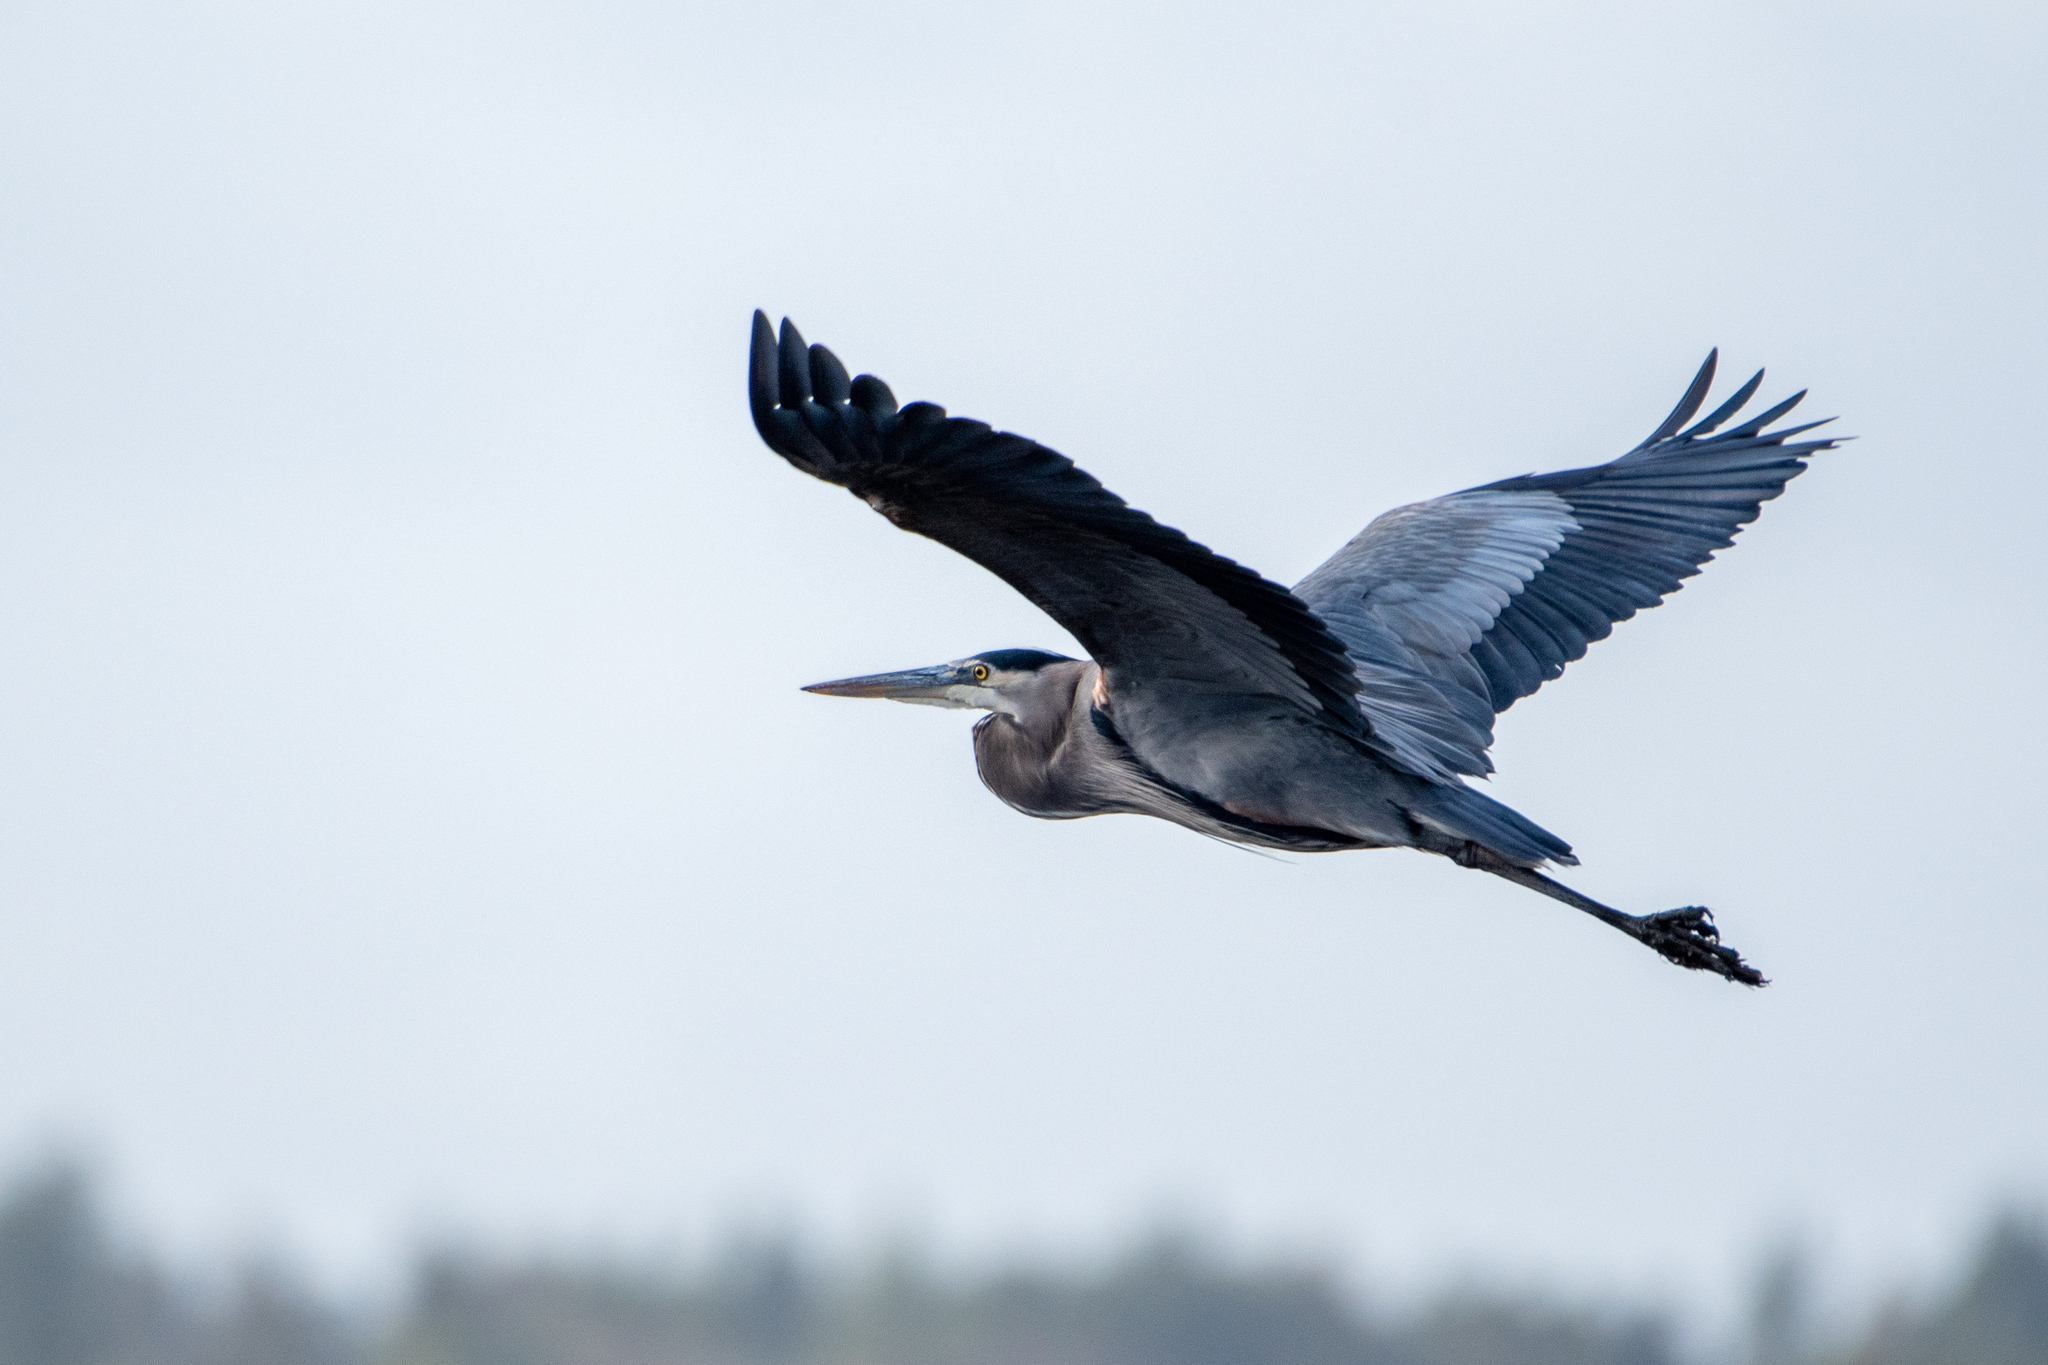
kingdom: Animalia
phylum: Chordata
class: Aves
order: Pelecaniformes
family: Ardeidae
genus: Ardea
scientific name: Ardea herodias
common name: Great blue heron
